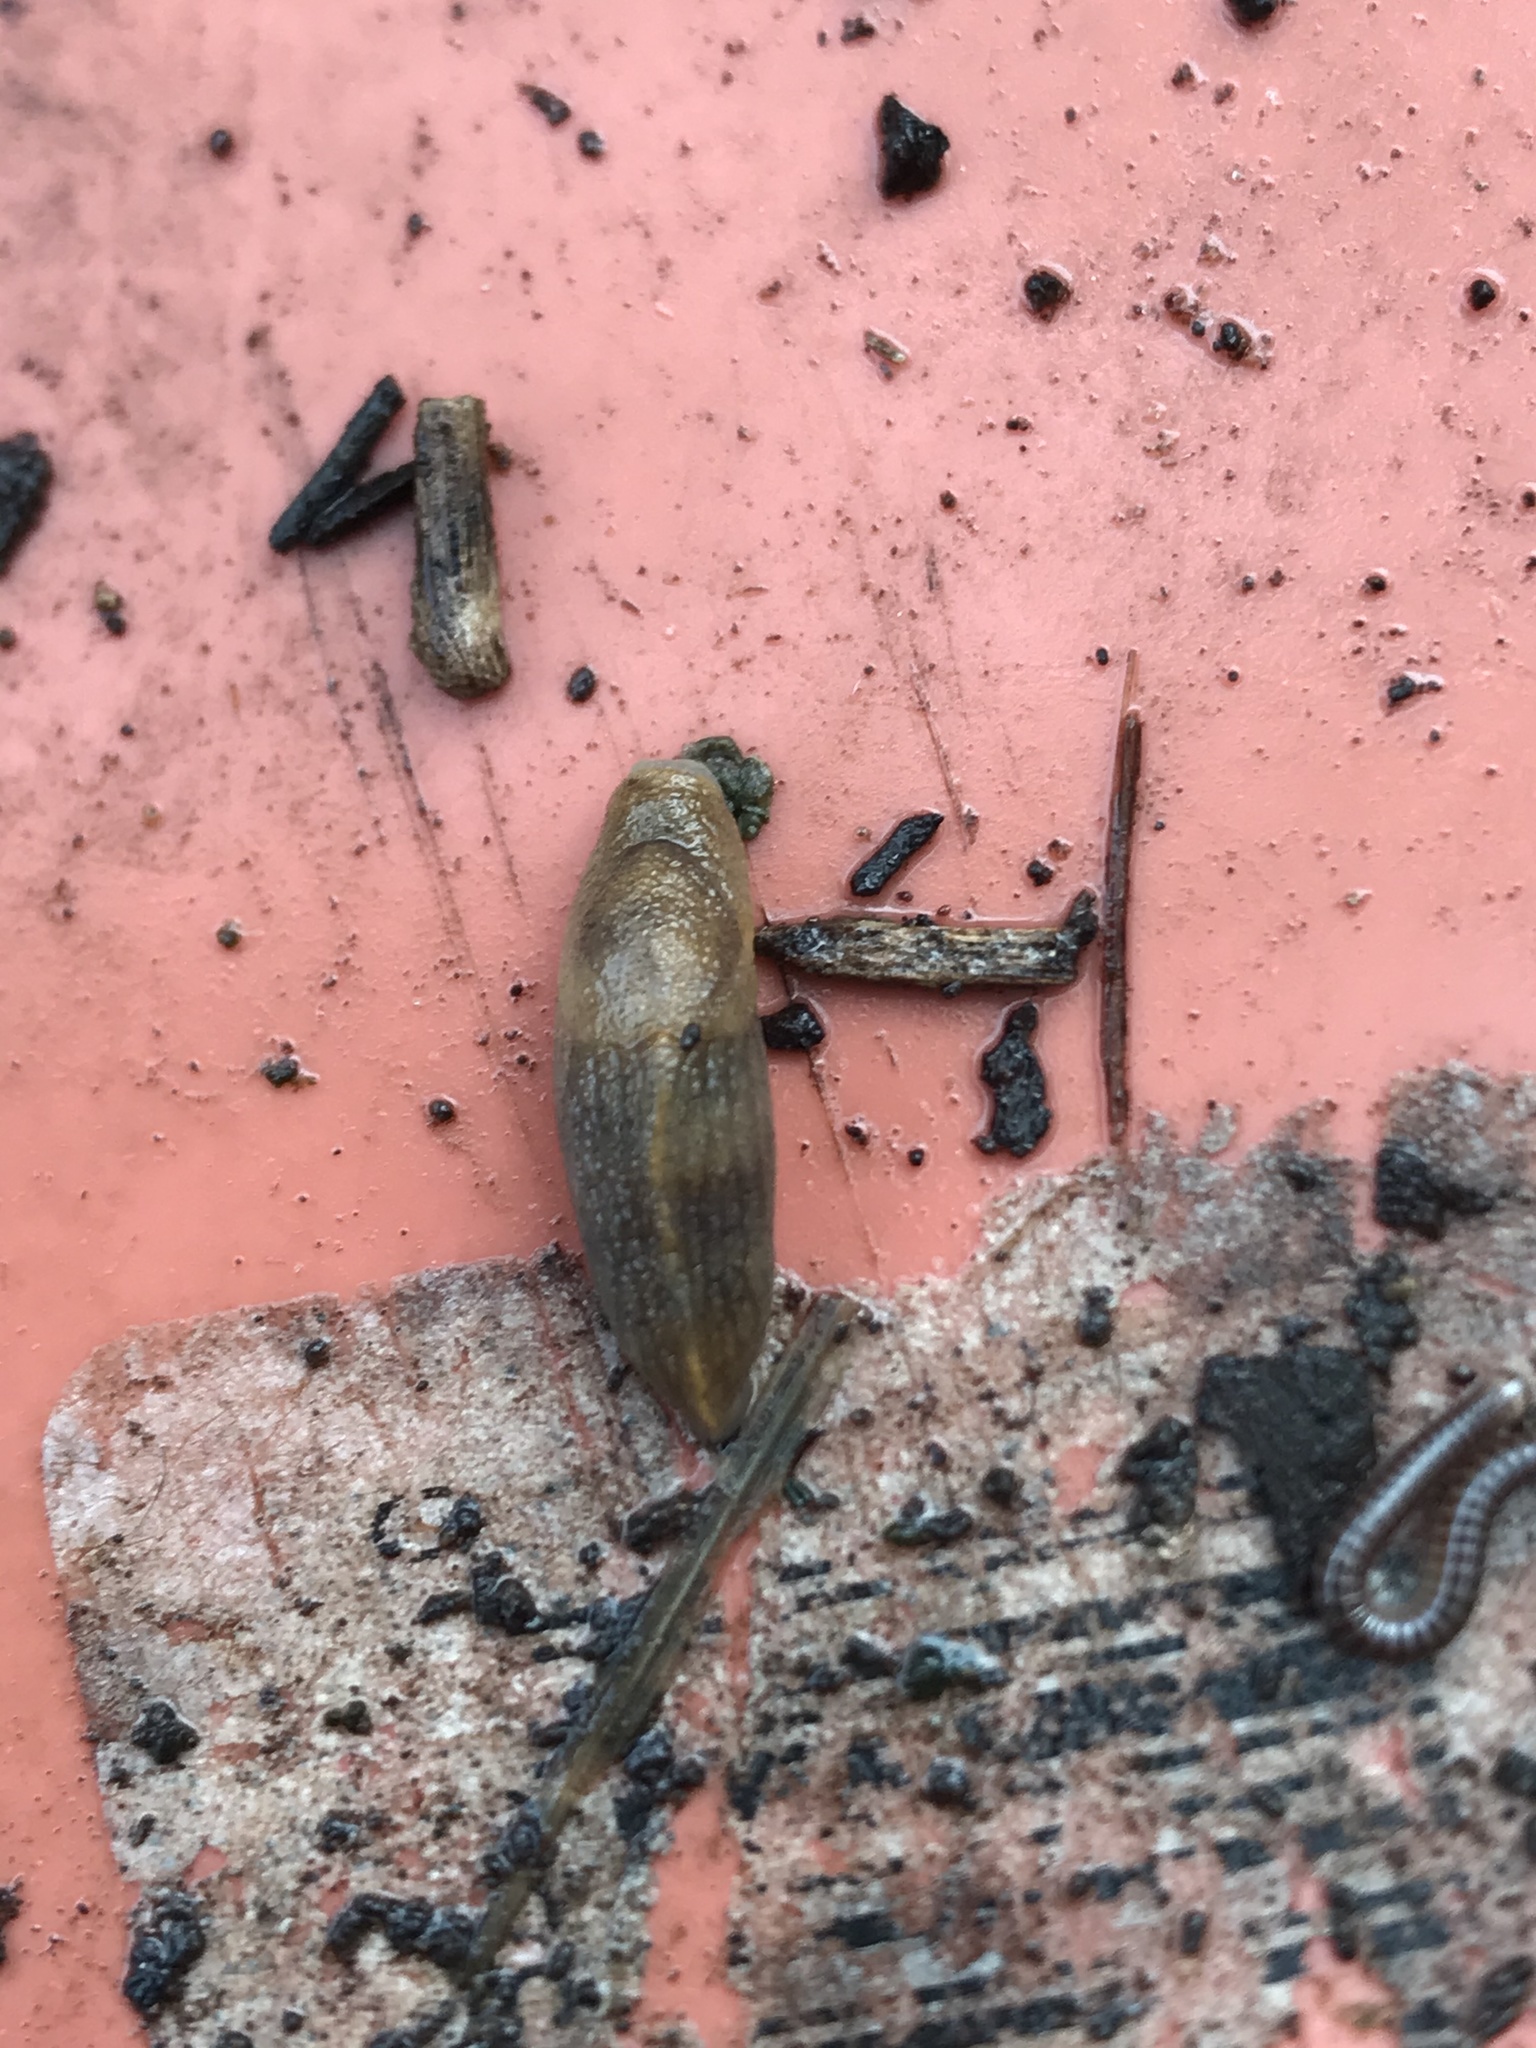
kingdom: Animalia
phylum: Mollusca
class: Gastropoda
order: Stylommatophora
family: Milacidae
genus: Milax
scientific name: Milax gagates
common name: Greenhouse slug
